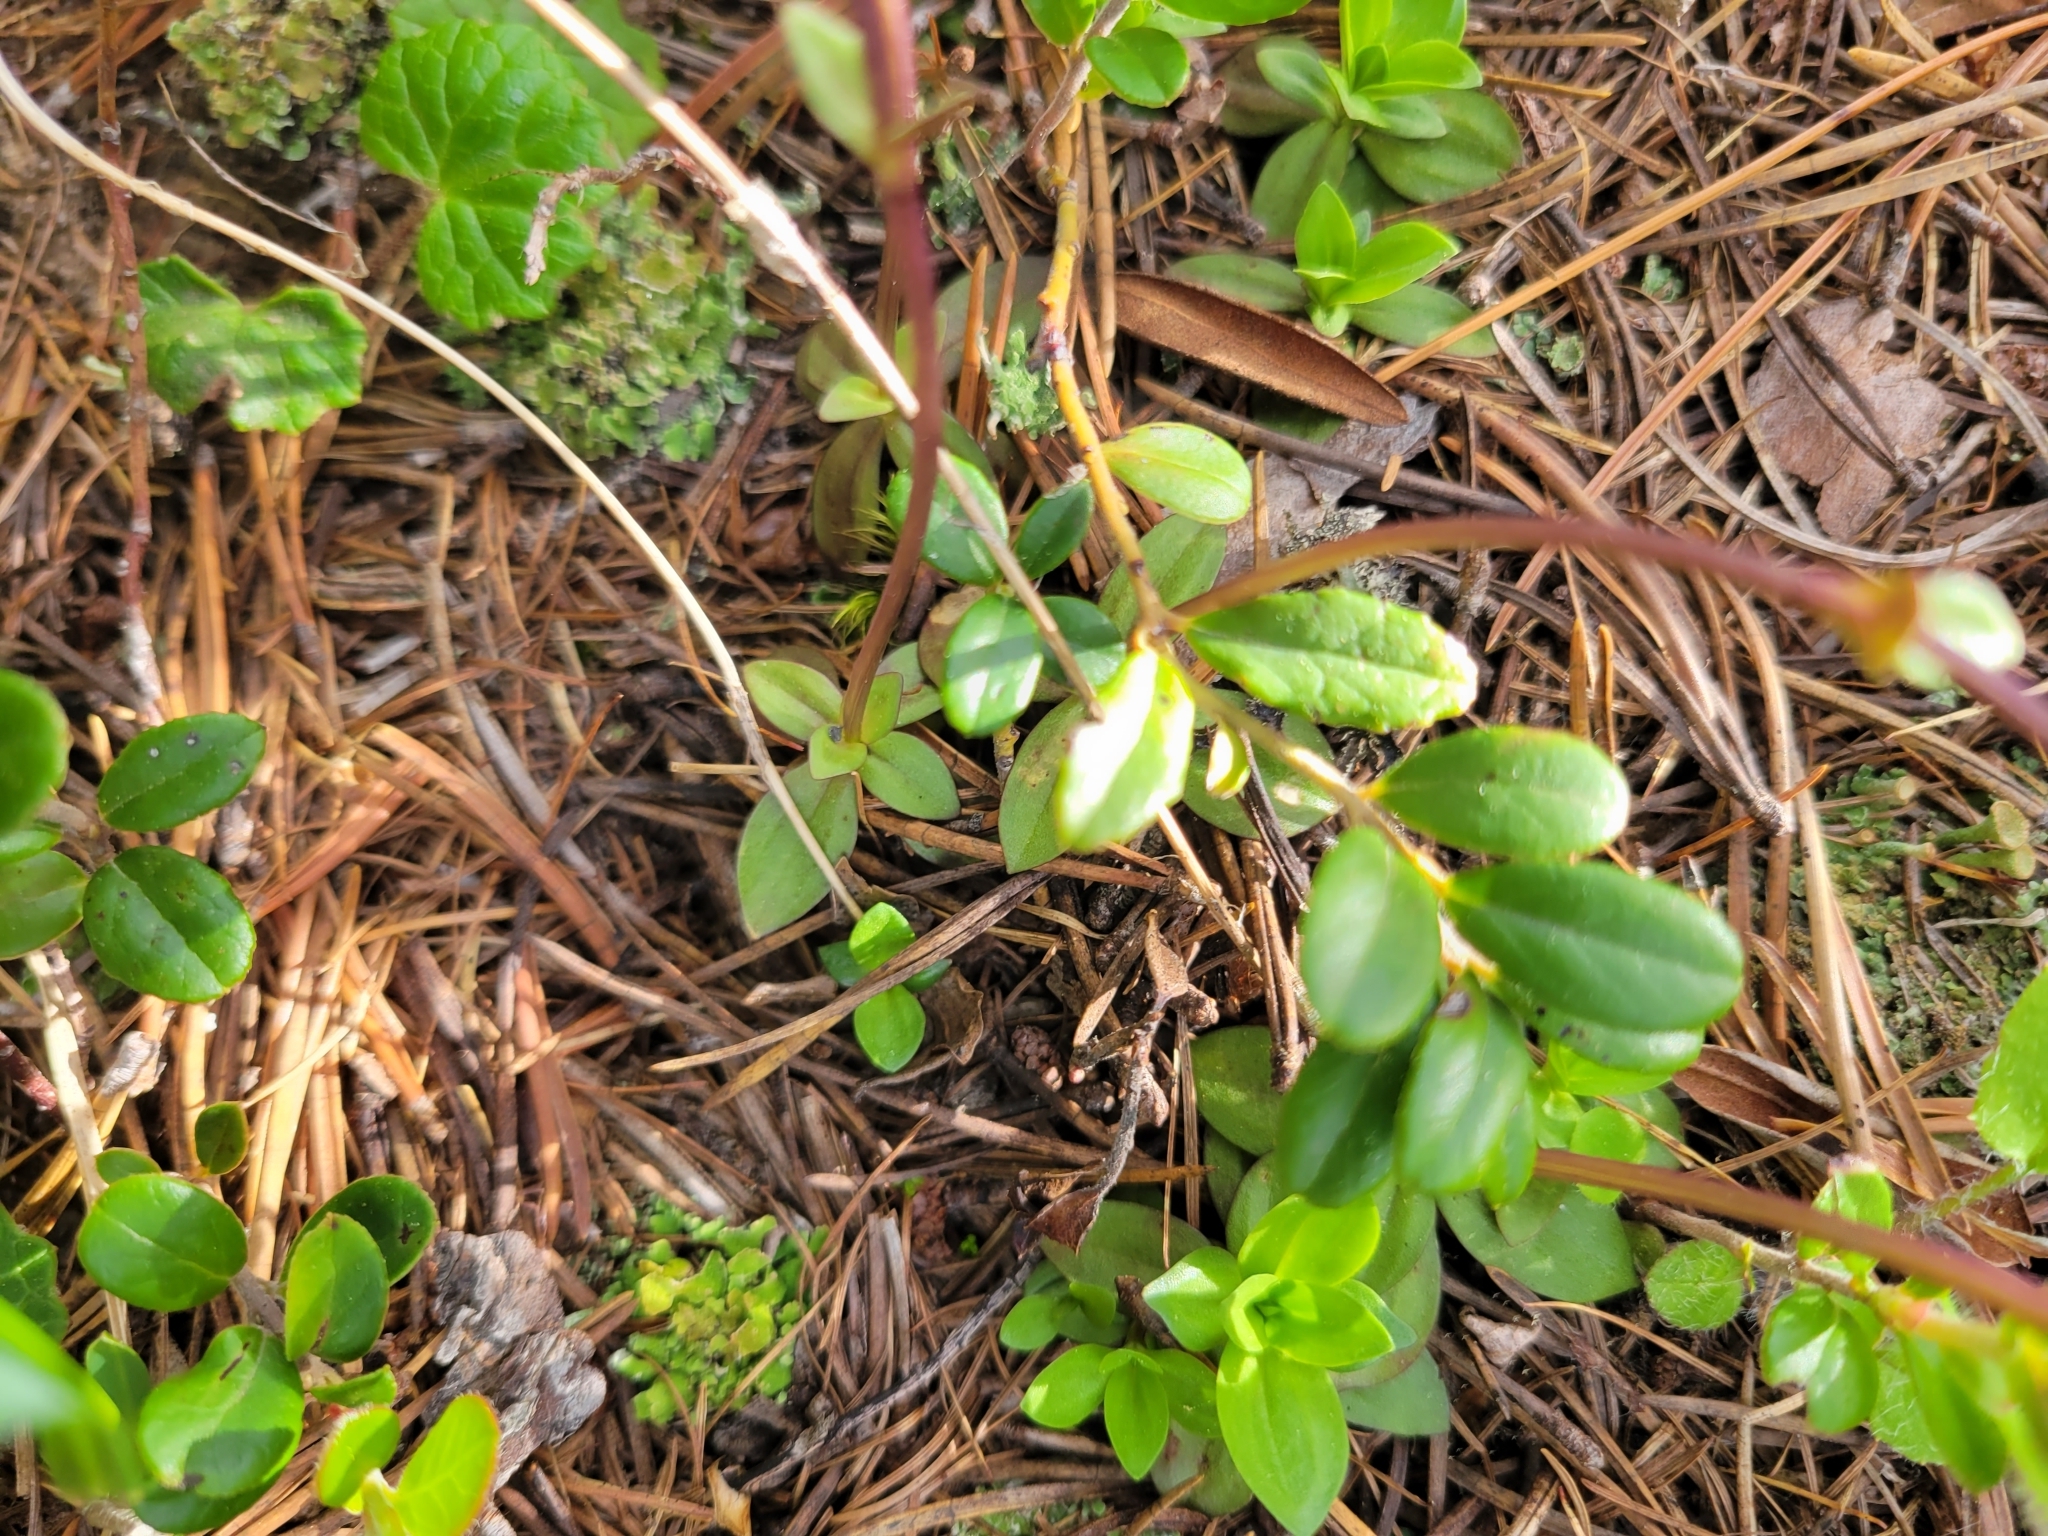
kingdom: Plantae
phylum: Tracheophyta
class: Magnoliopsida
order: Gentianales
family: Gentianaceae
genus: Gentiana
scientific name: Gentiana verna
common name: Spring gentian
